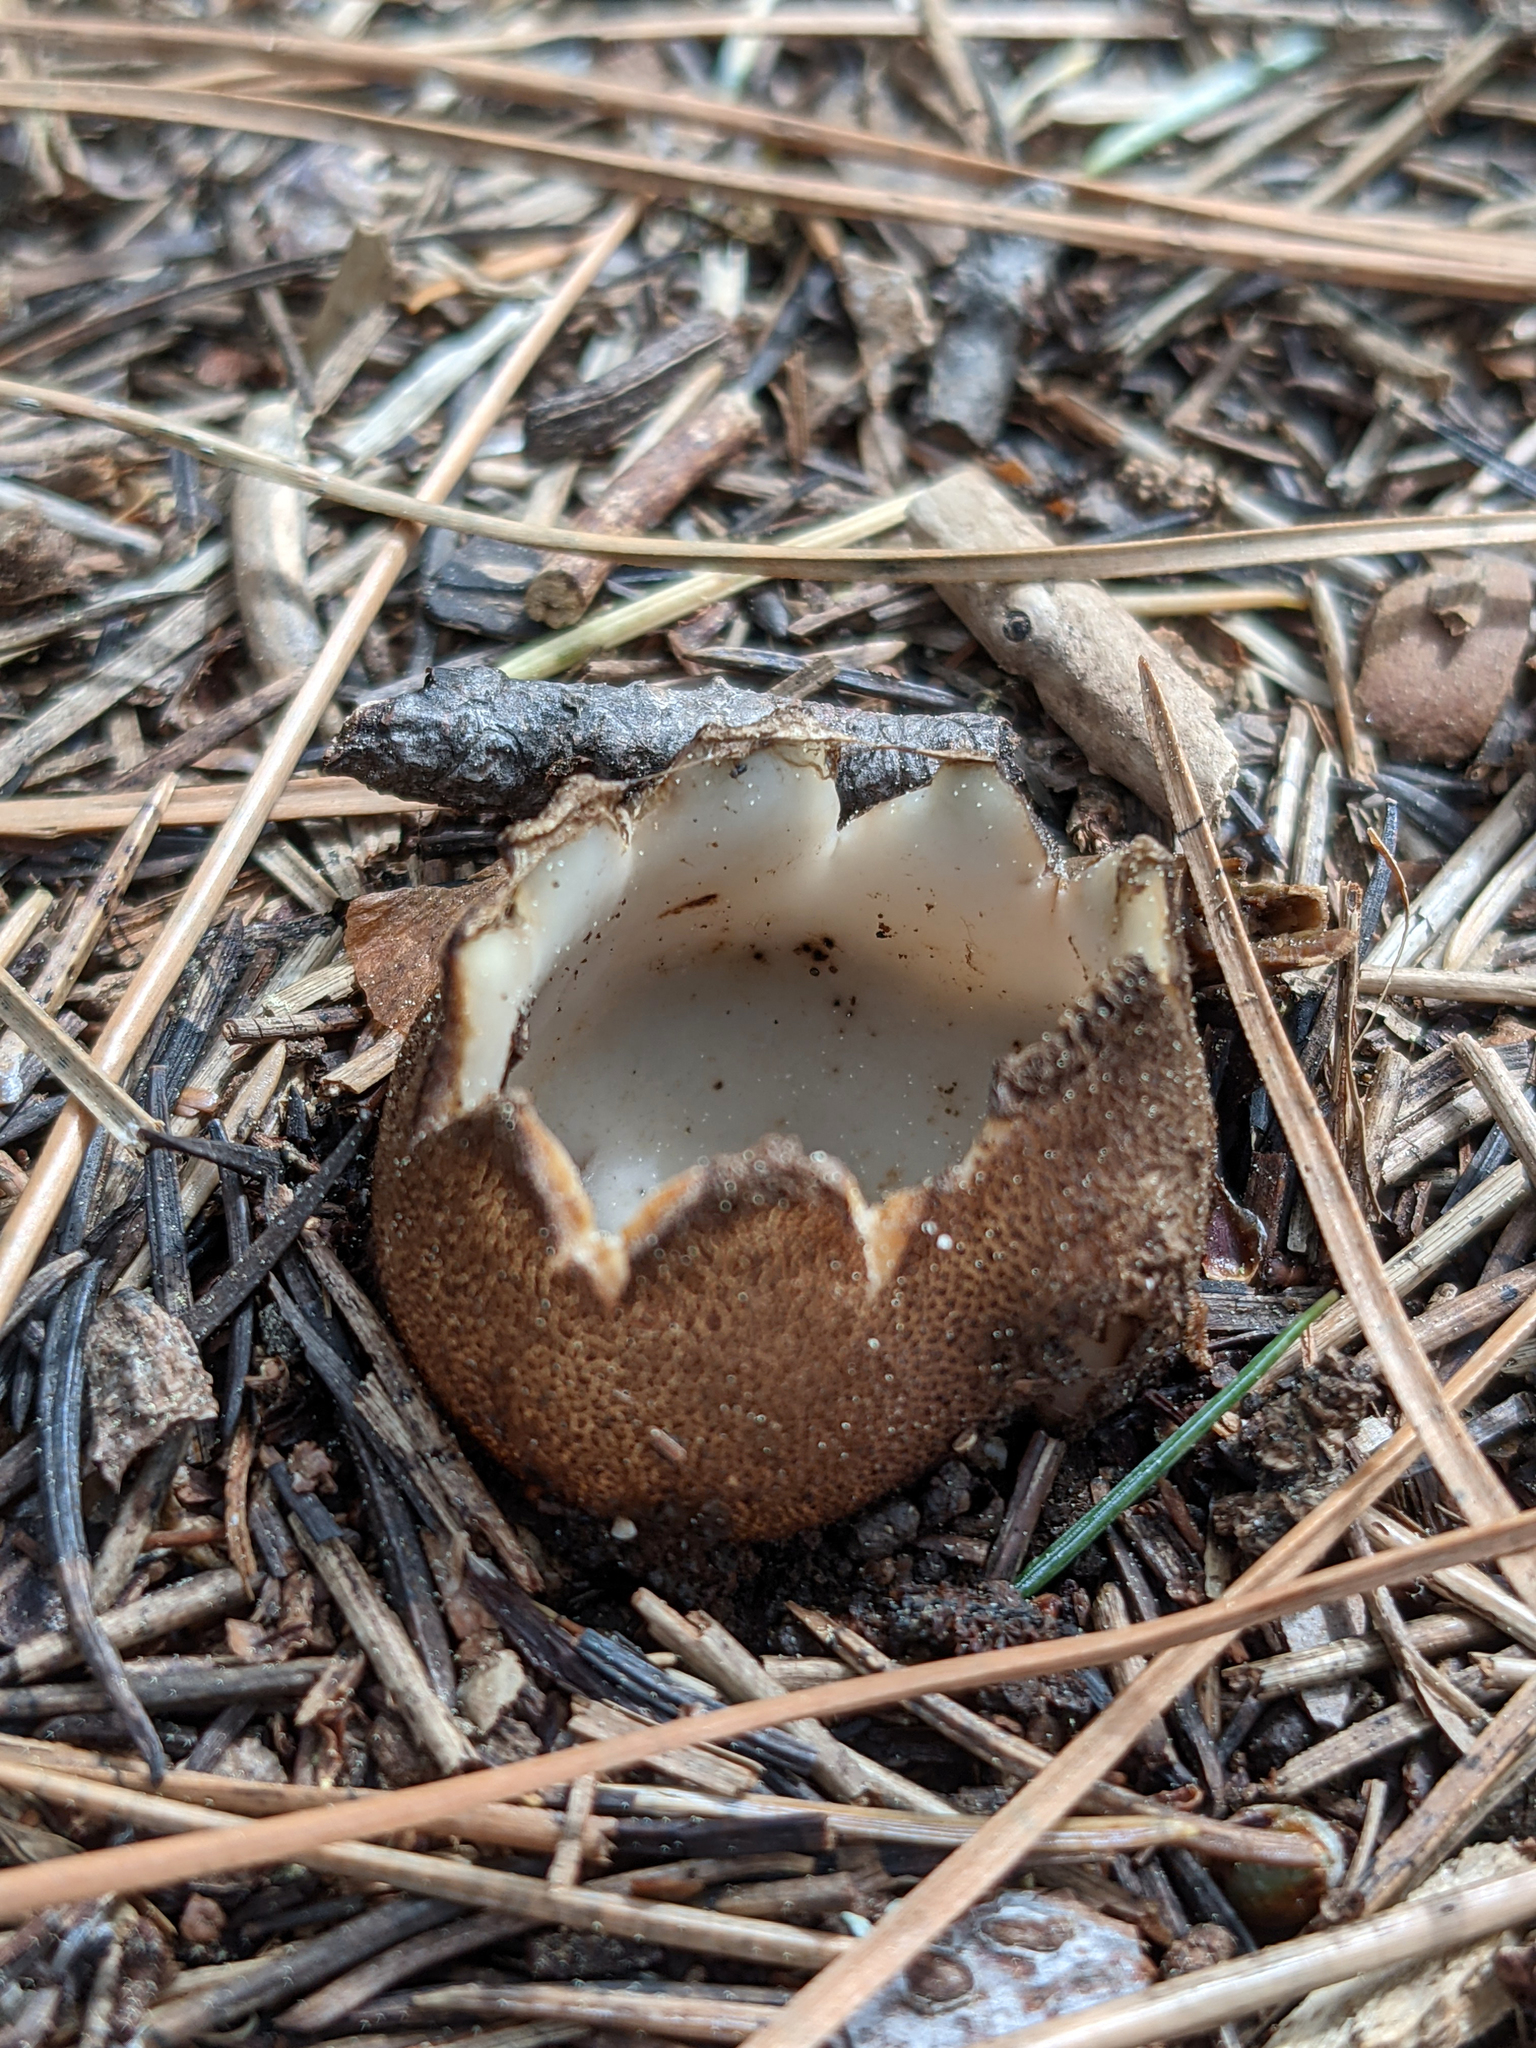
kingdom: Fungi
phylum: Ascomycota
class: Pezizomycetes
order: Pezizales
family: Pyronemataceae
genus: Geopora
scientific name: Geopora arenicola
